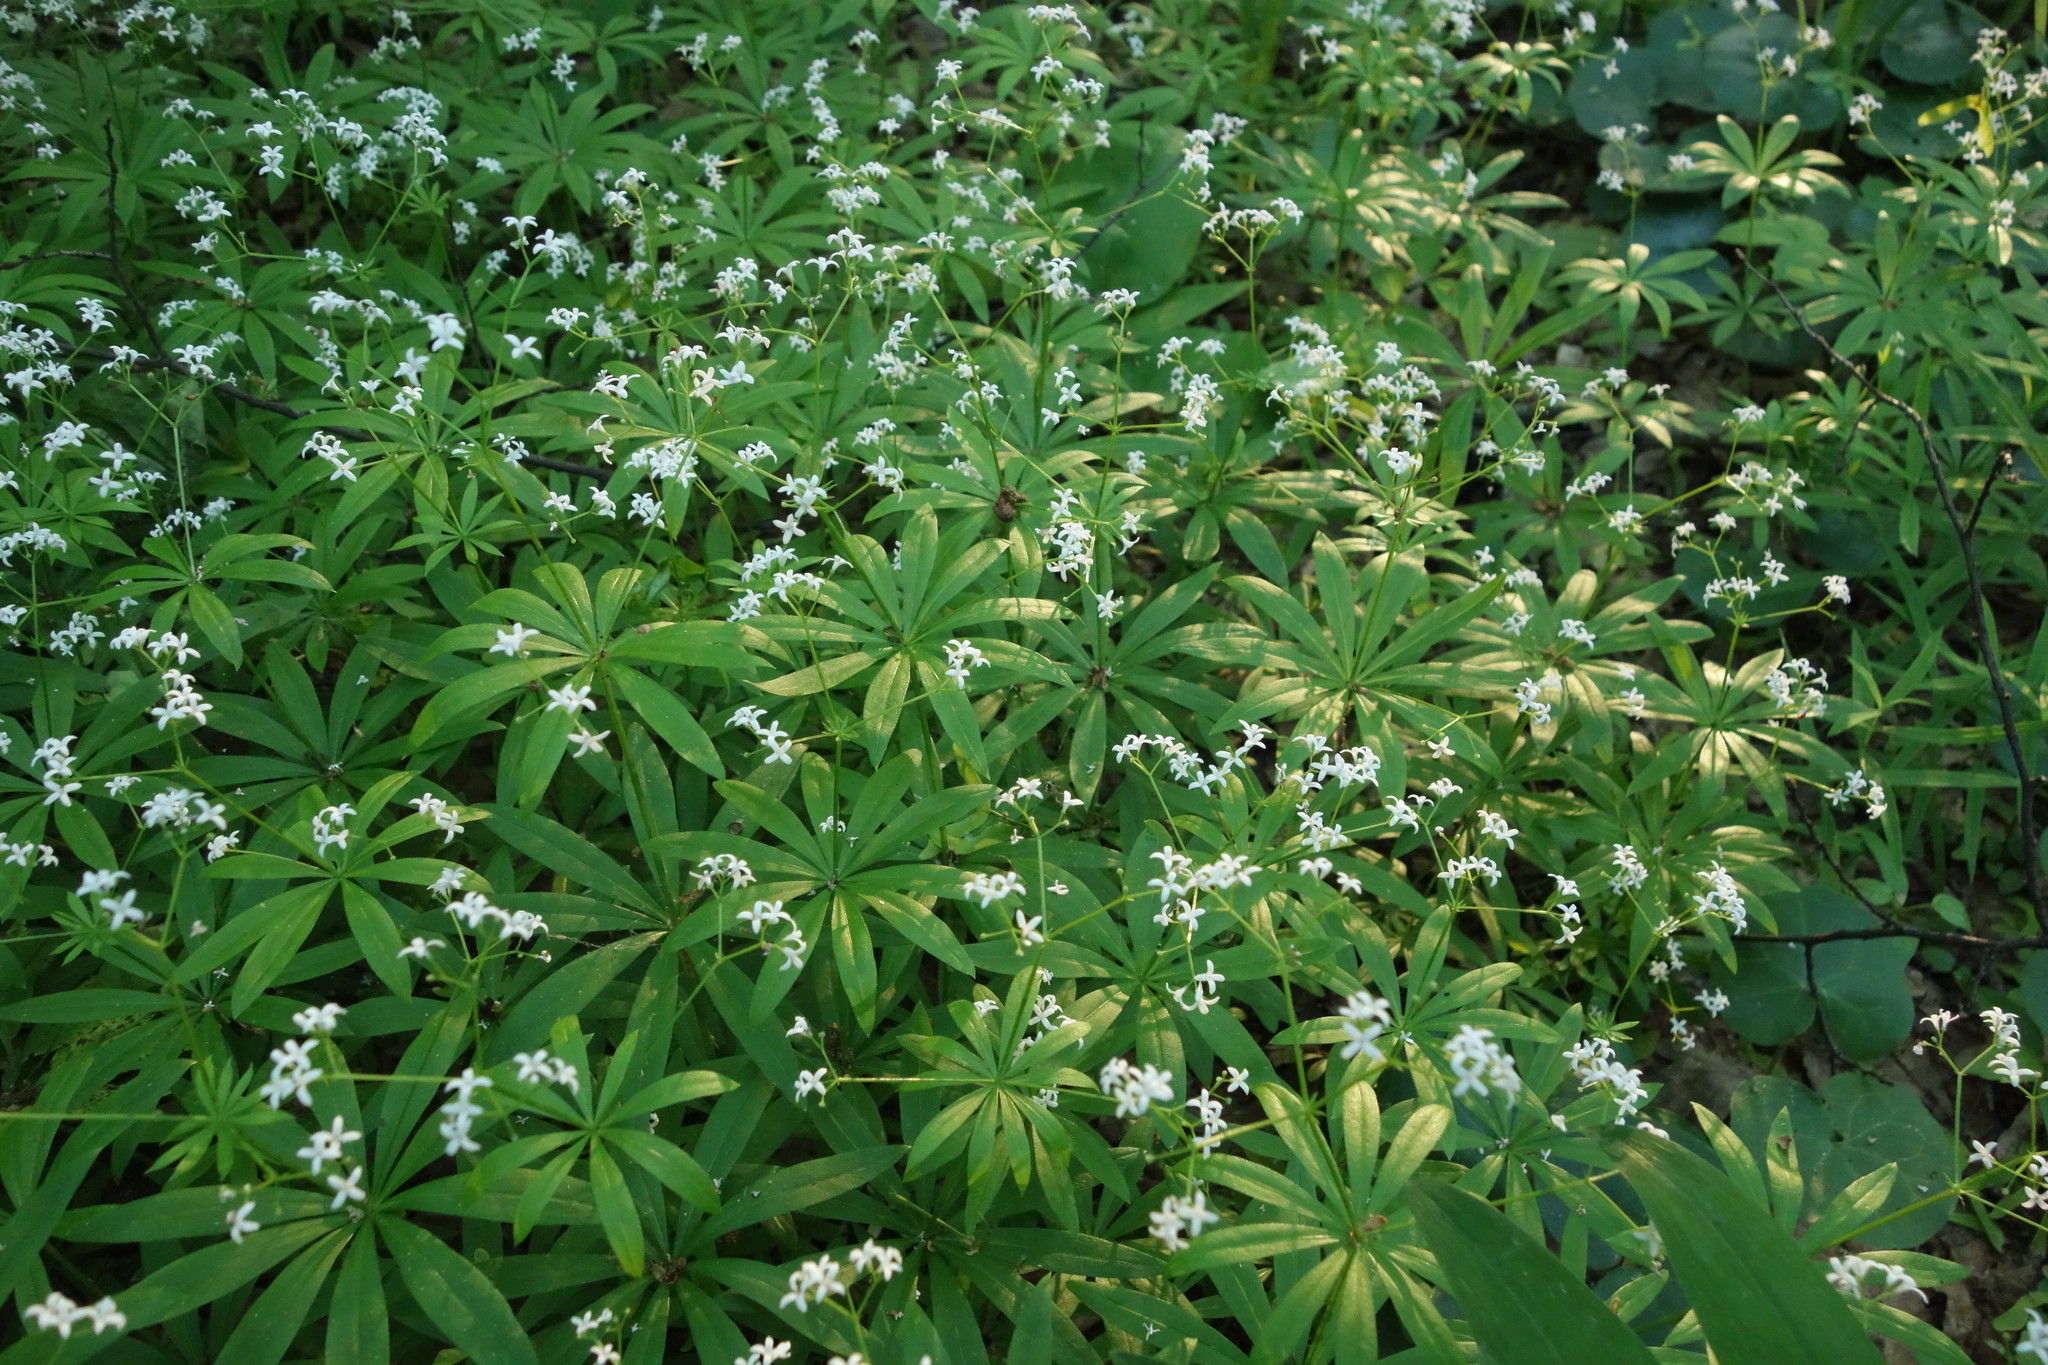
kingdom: Plantae
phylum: Tracheophyta
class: Magnoliopsida
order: Gentianales
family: Rubiaceae
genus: Galium
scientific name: Galium odoratum
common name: Sweet woodruff
